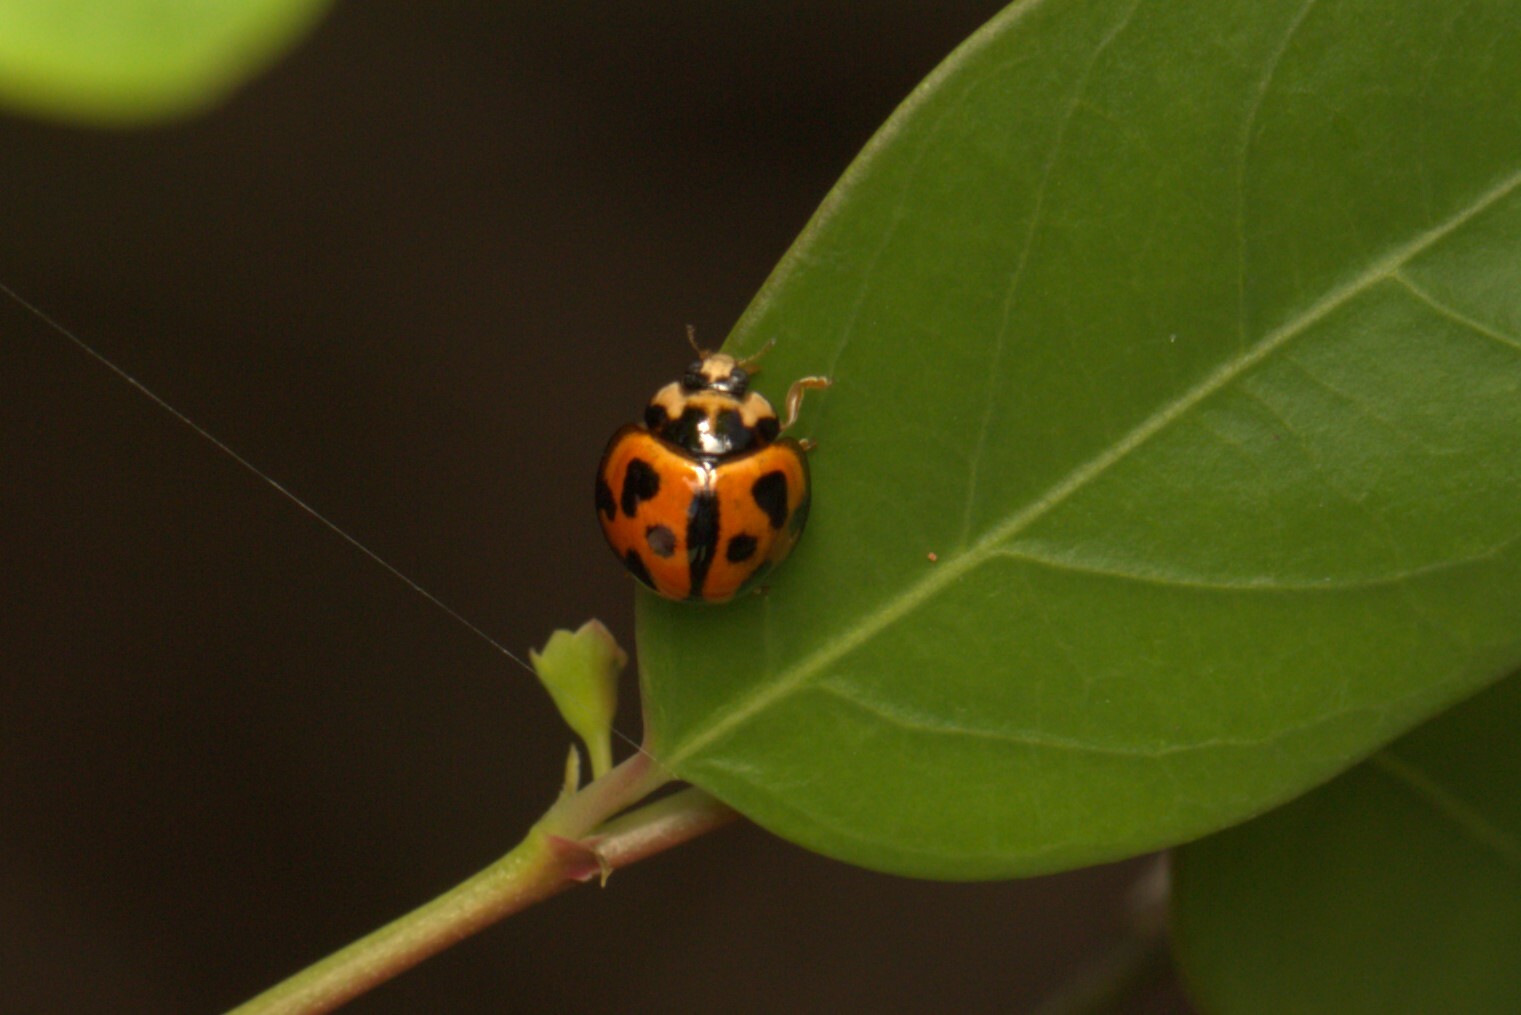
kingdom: Animalia
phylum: Arthropoda
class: Insecta
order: Coleoptera
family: Coccinellidae
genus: Coelophora
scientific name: Coelophora inaequalis
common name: Common australian lady beetle
